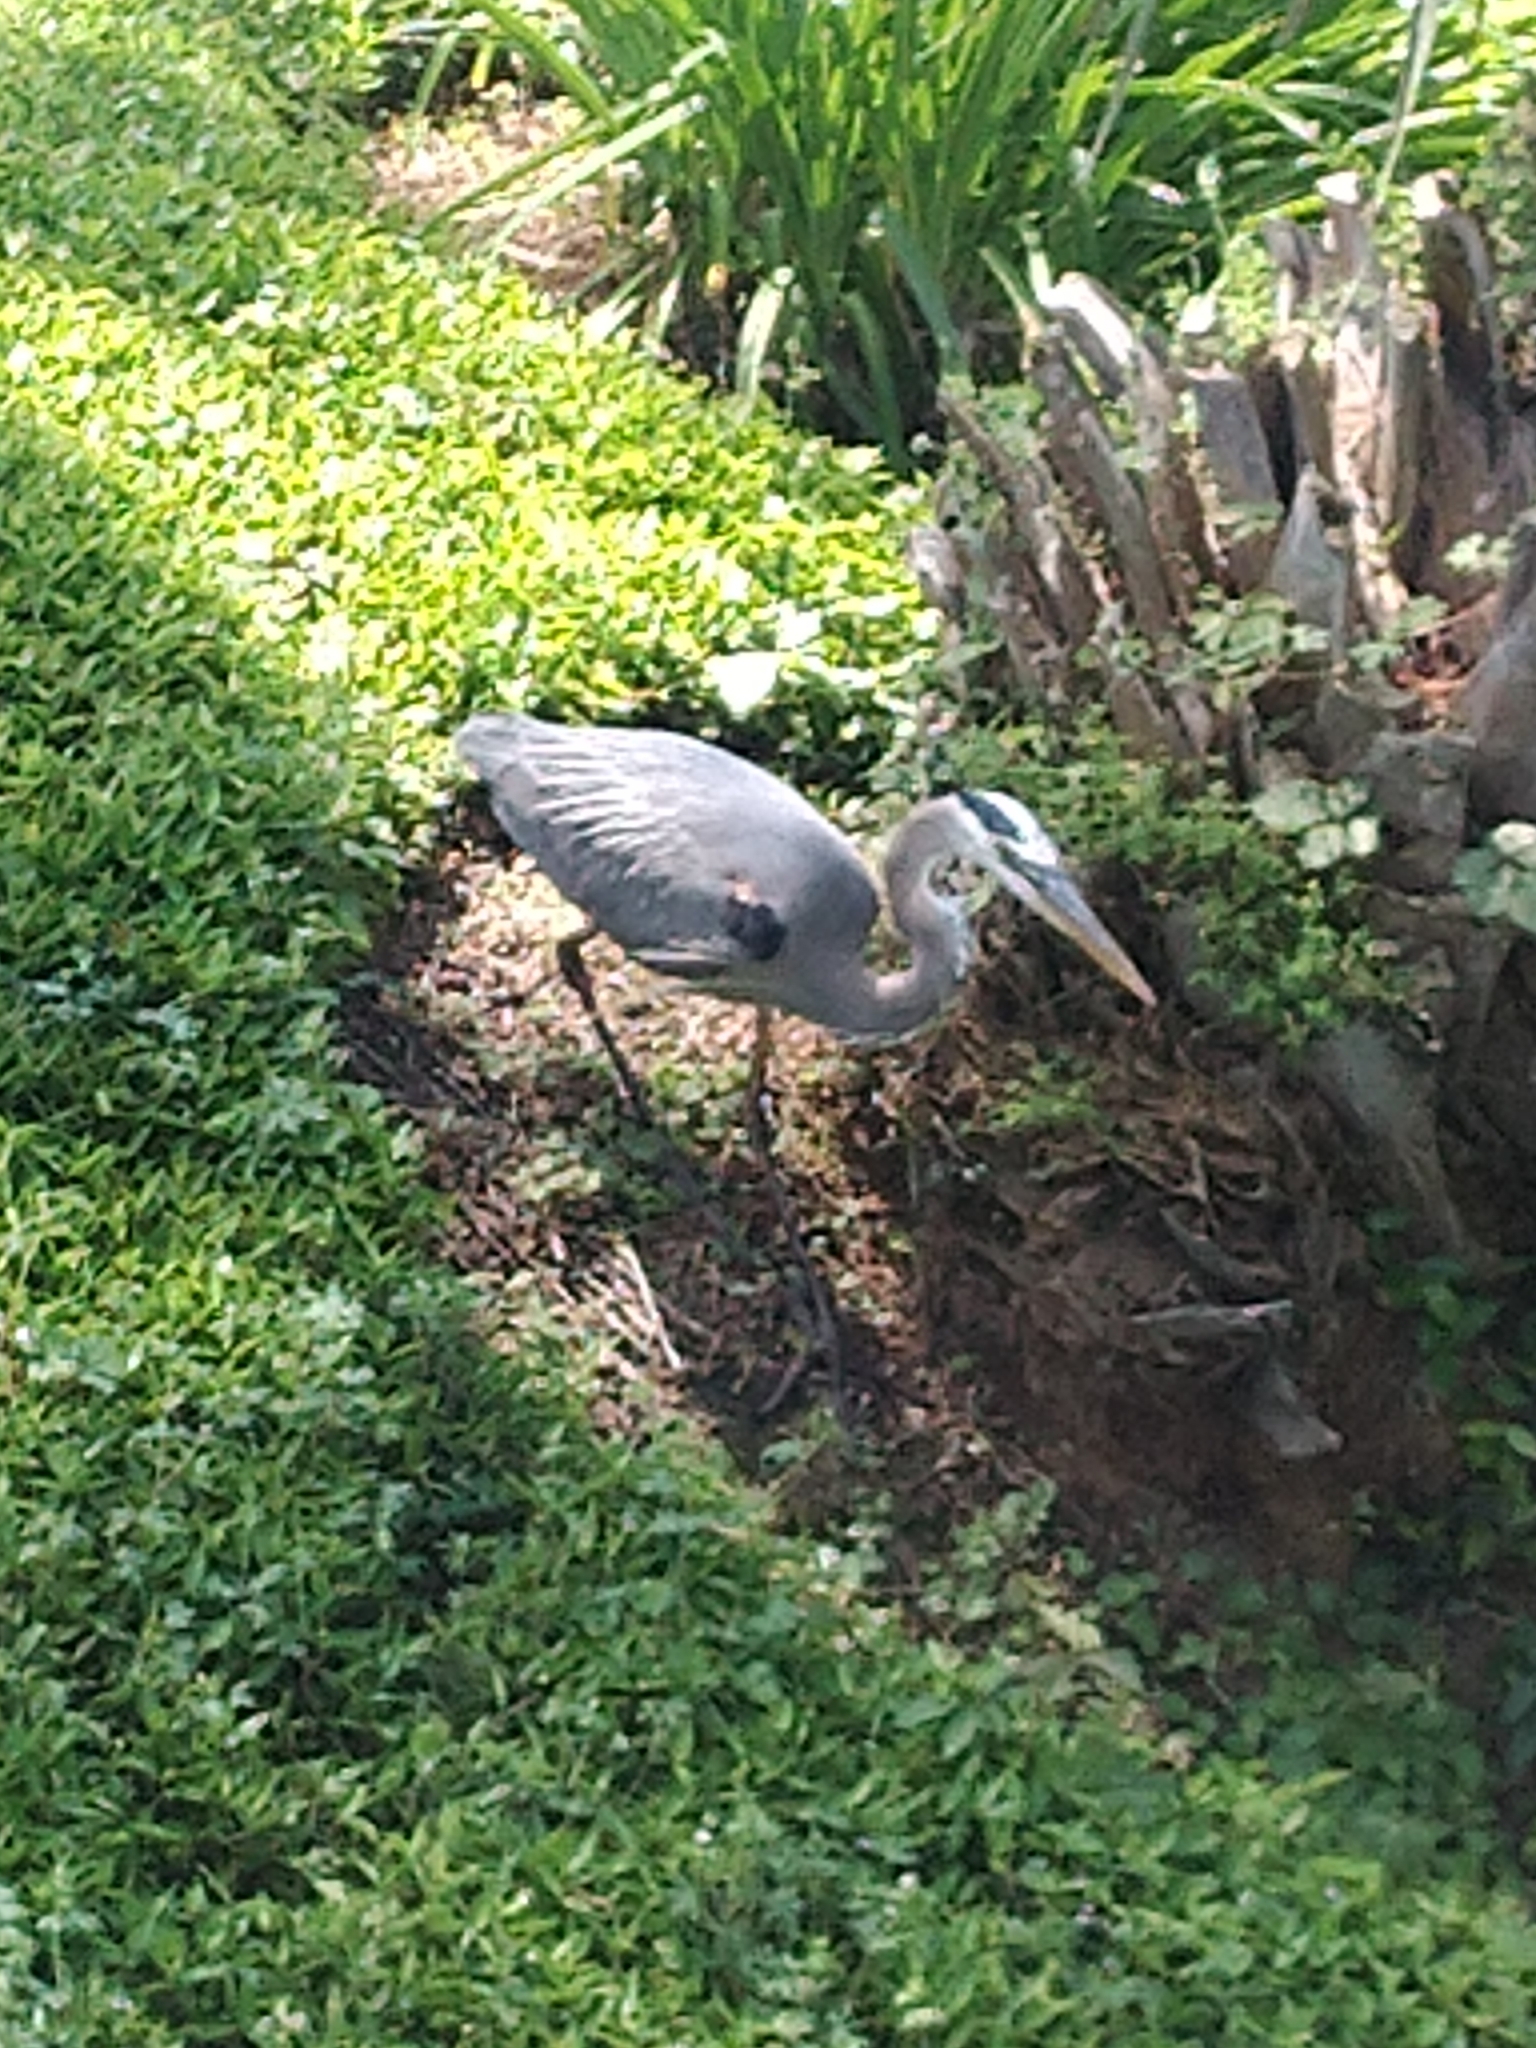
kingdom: Animalia
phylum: Chordata
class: Aves
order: Pelecaniformes
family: Ardeidae
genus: Ardea
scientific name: Ardea herodias
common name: Great blue heron
